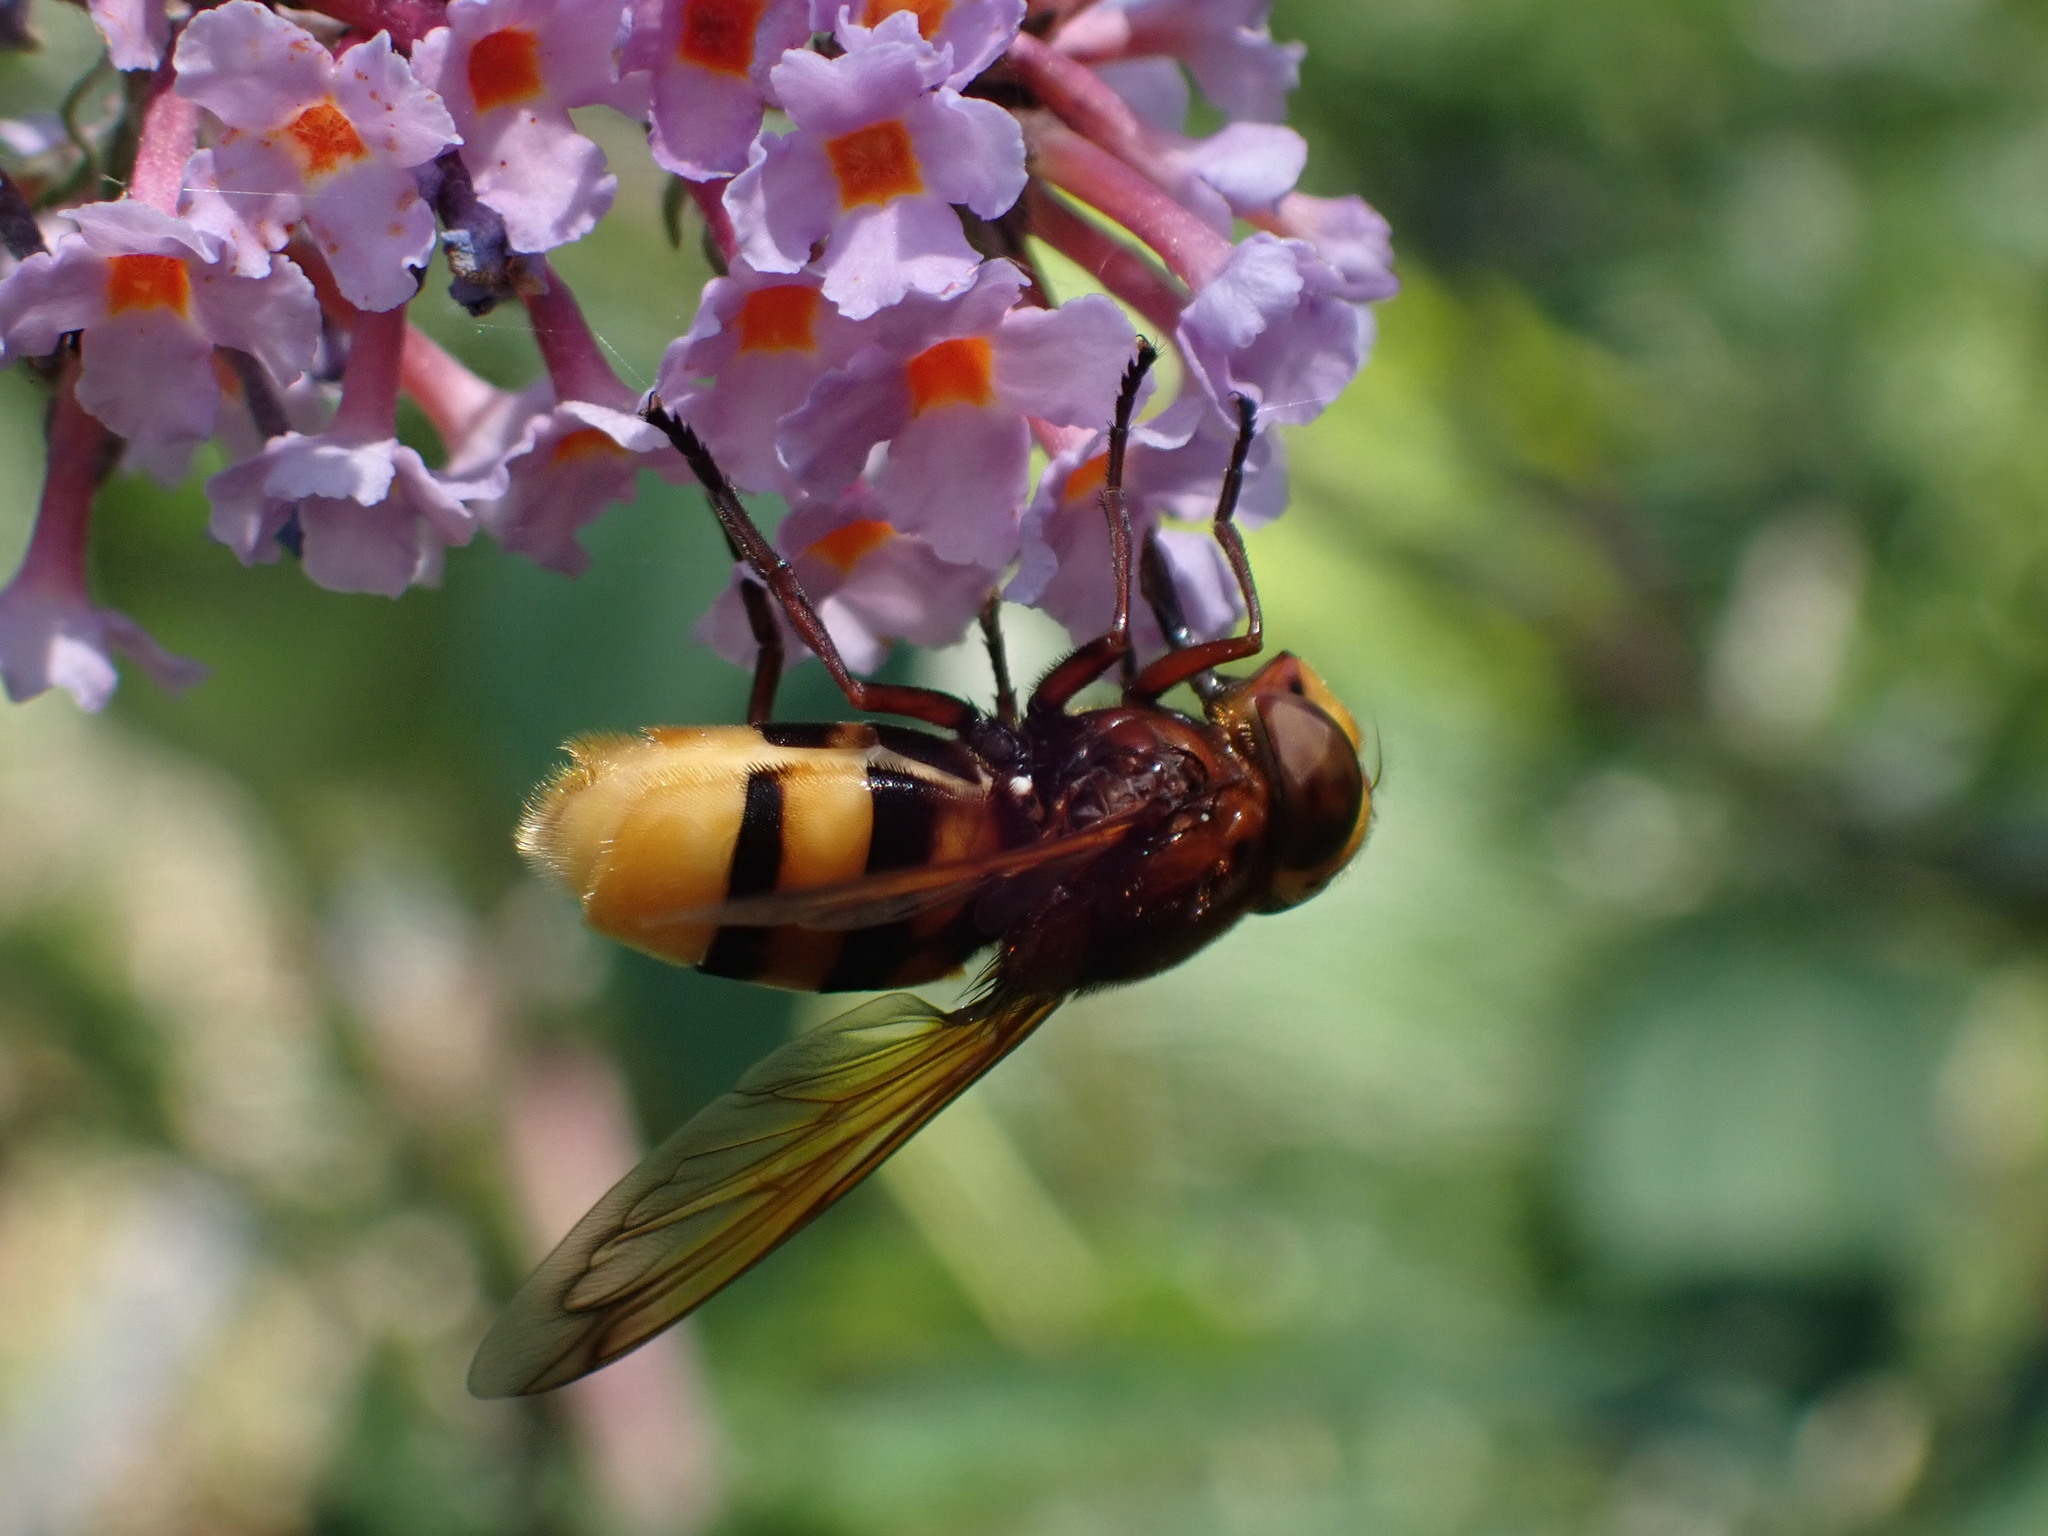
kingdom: Animalia
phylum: Arthropoda
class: Insecta
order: Diptera
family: Syrphidae
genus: Volucella
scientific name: Volucella zonaria
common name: Hornet hoverfly
